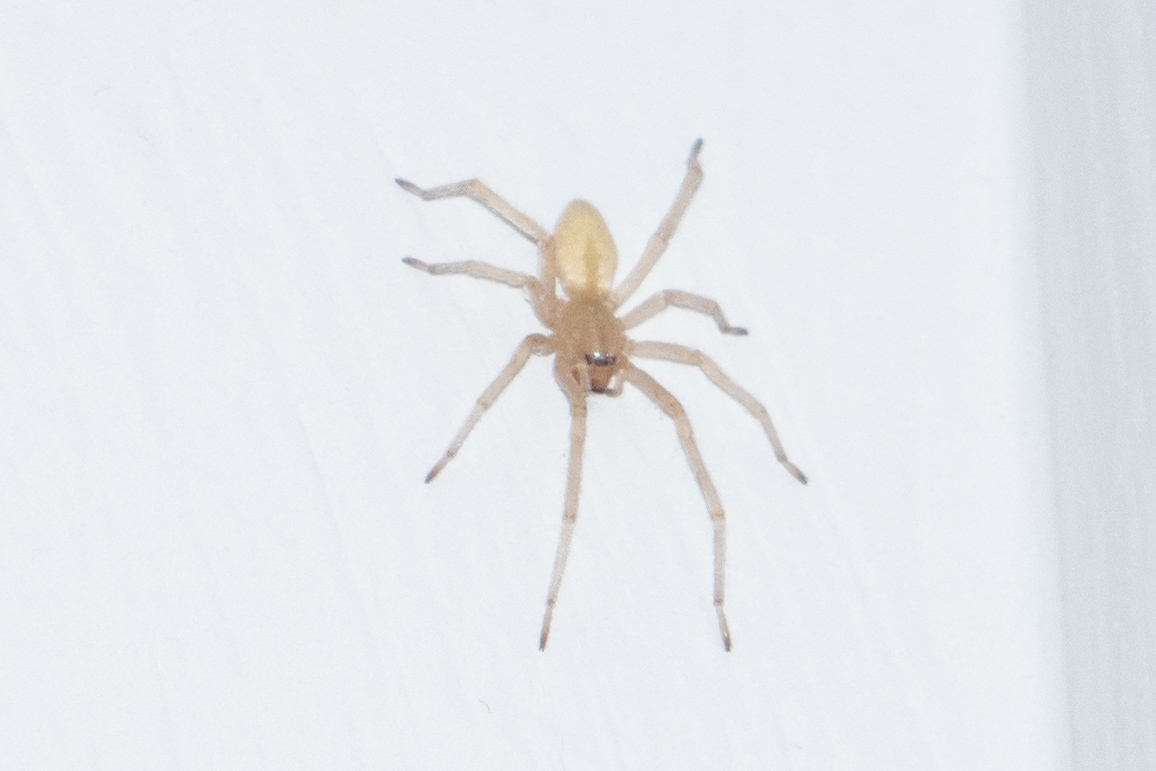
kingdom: Animalia
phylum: Arthropoda
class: Arachnida
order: Araneae
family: Cheiracanthiidae
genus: Cheiracanthium
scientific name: Cheiracanthium mildei
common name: Northern yellow sac spider
